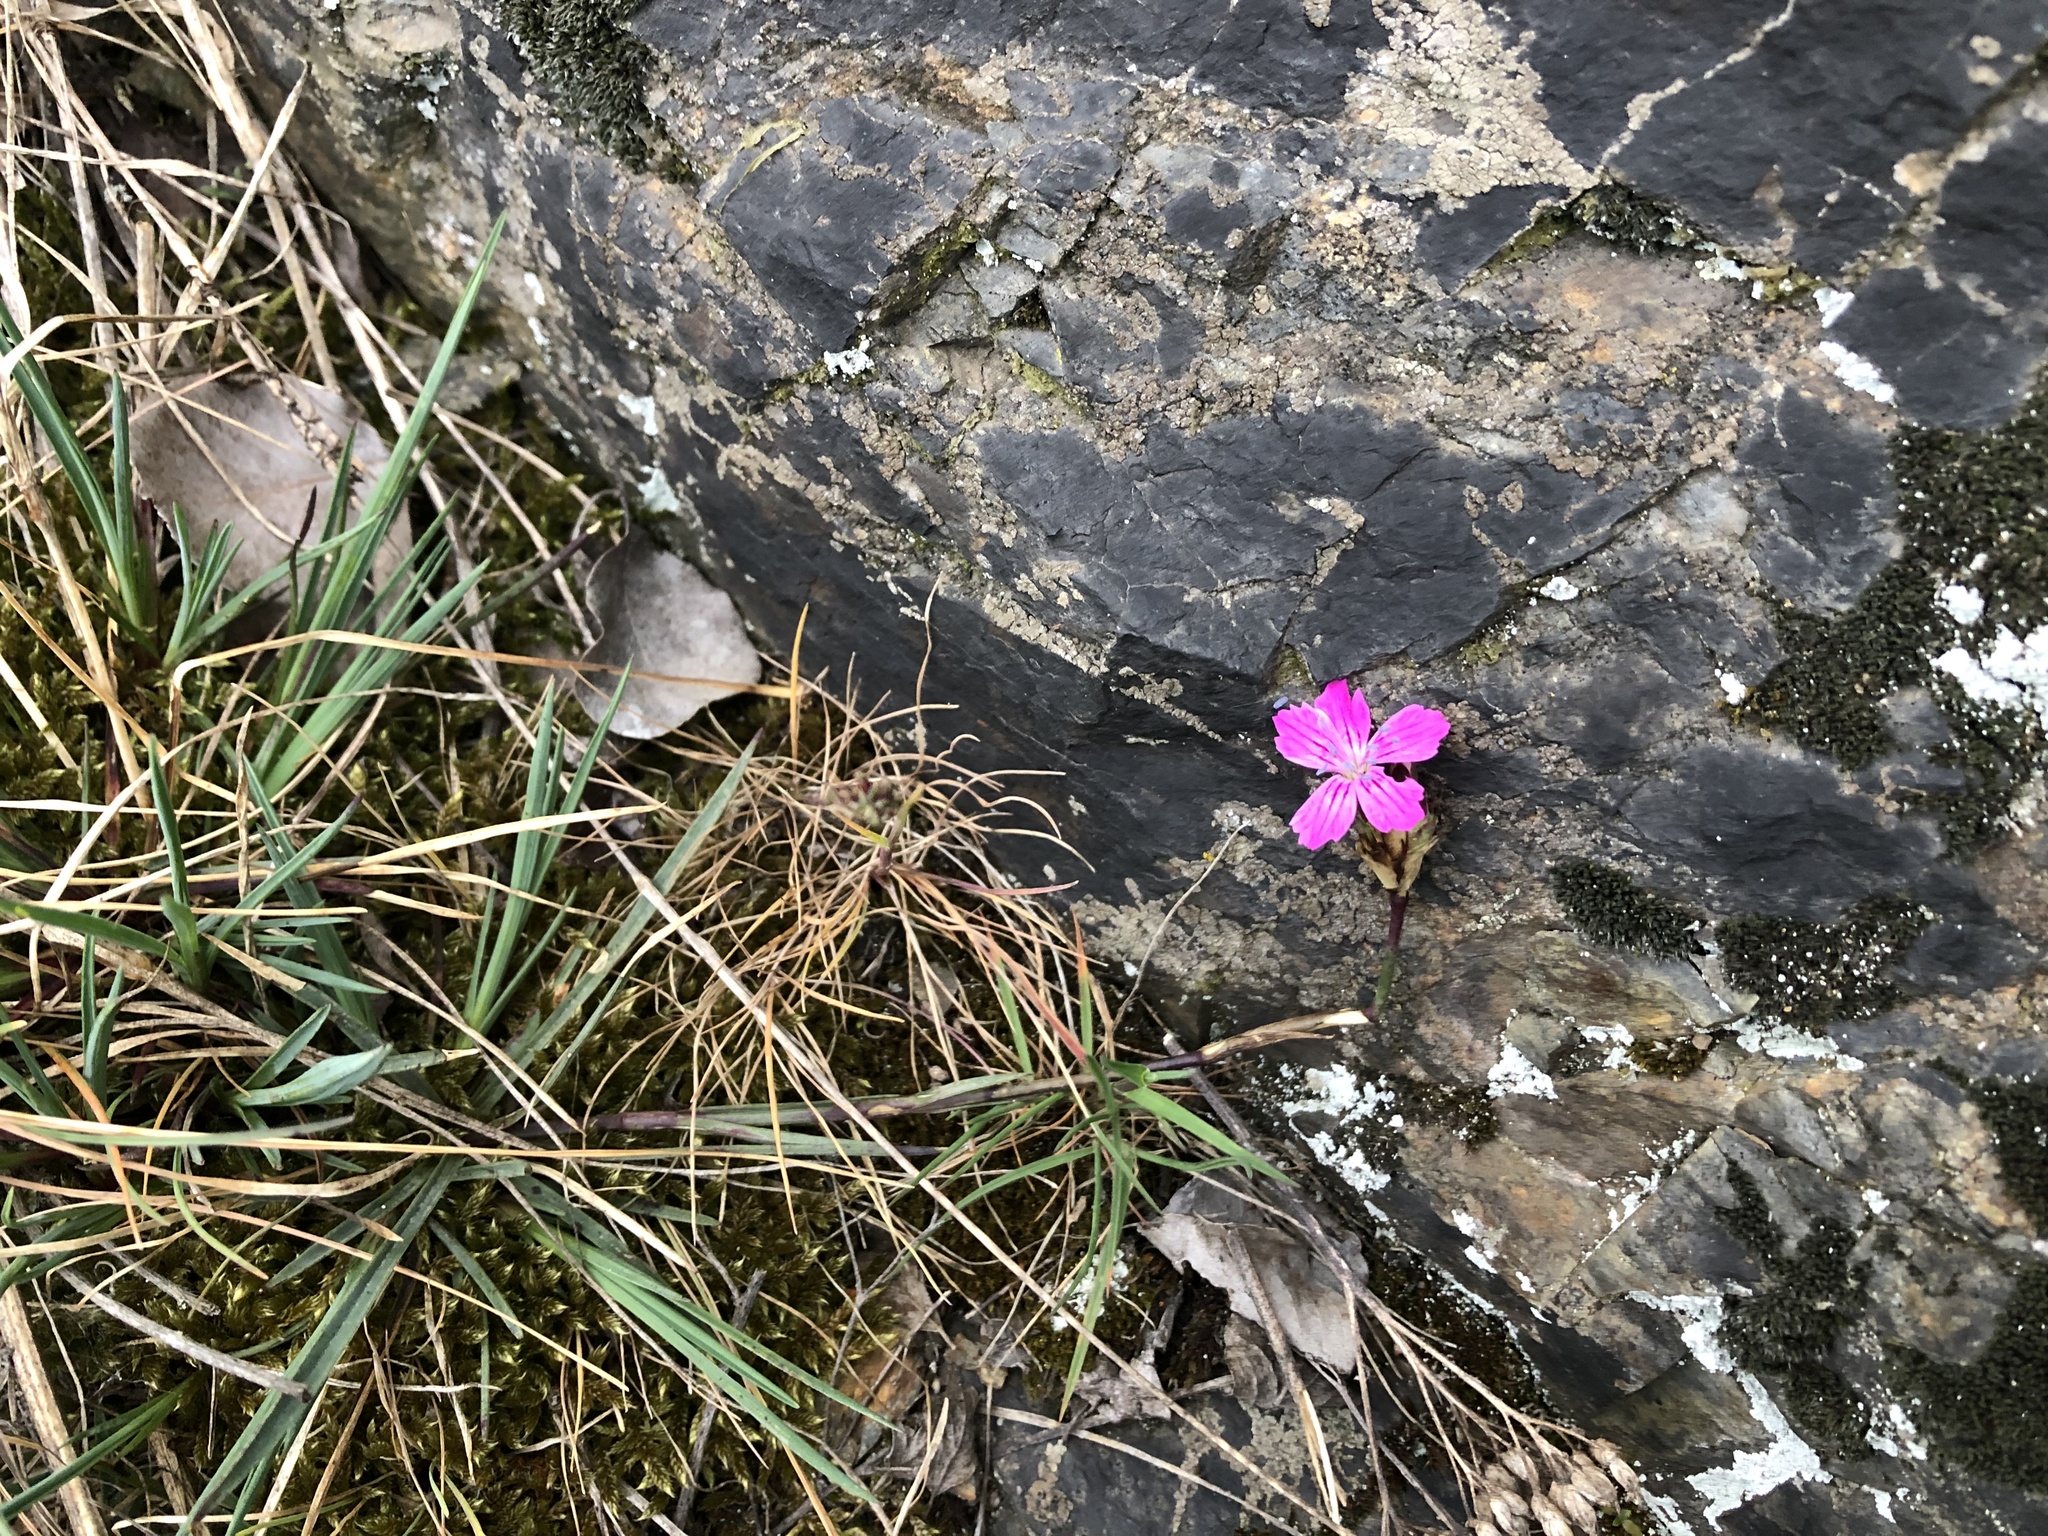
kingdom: Plantae
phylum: Tracheophyta
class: Magnoliopsida
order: Caryophyllales
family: Caryophyllaceae
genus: Dianthus
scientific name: Dianthus carthusianorum
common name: Carthusian pink
